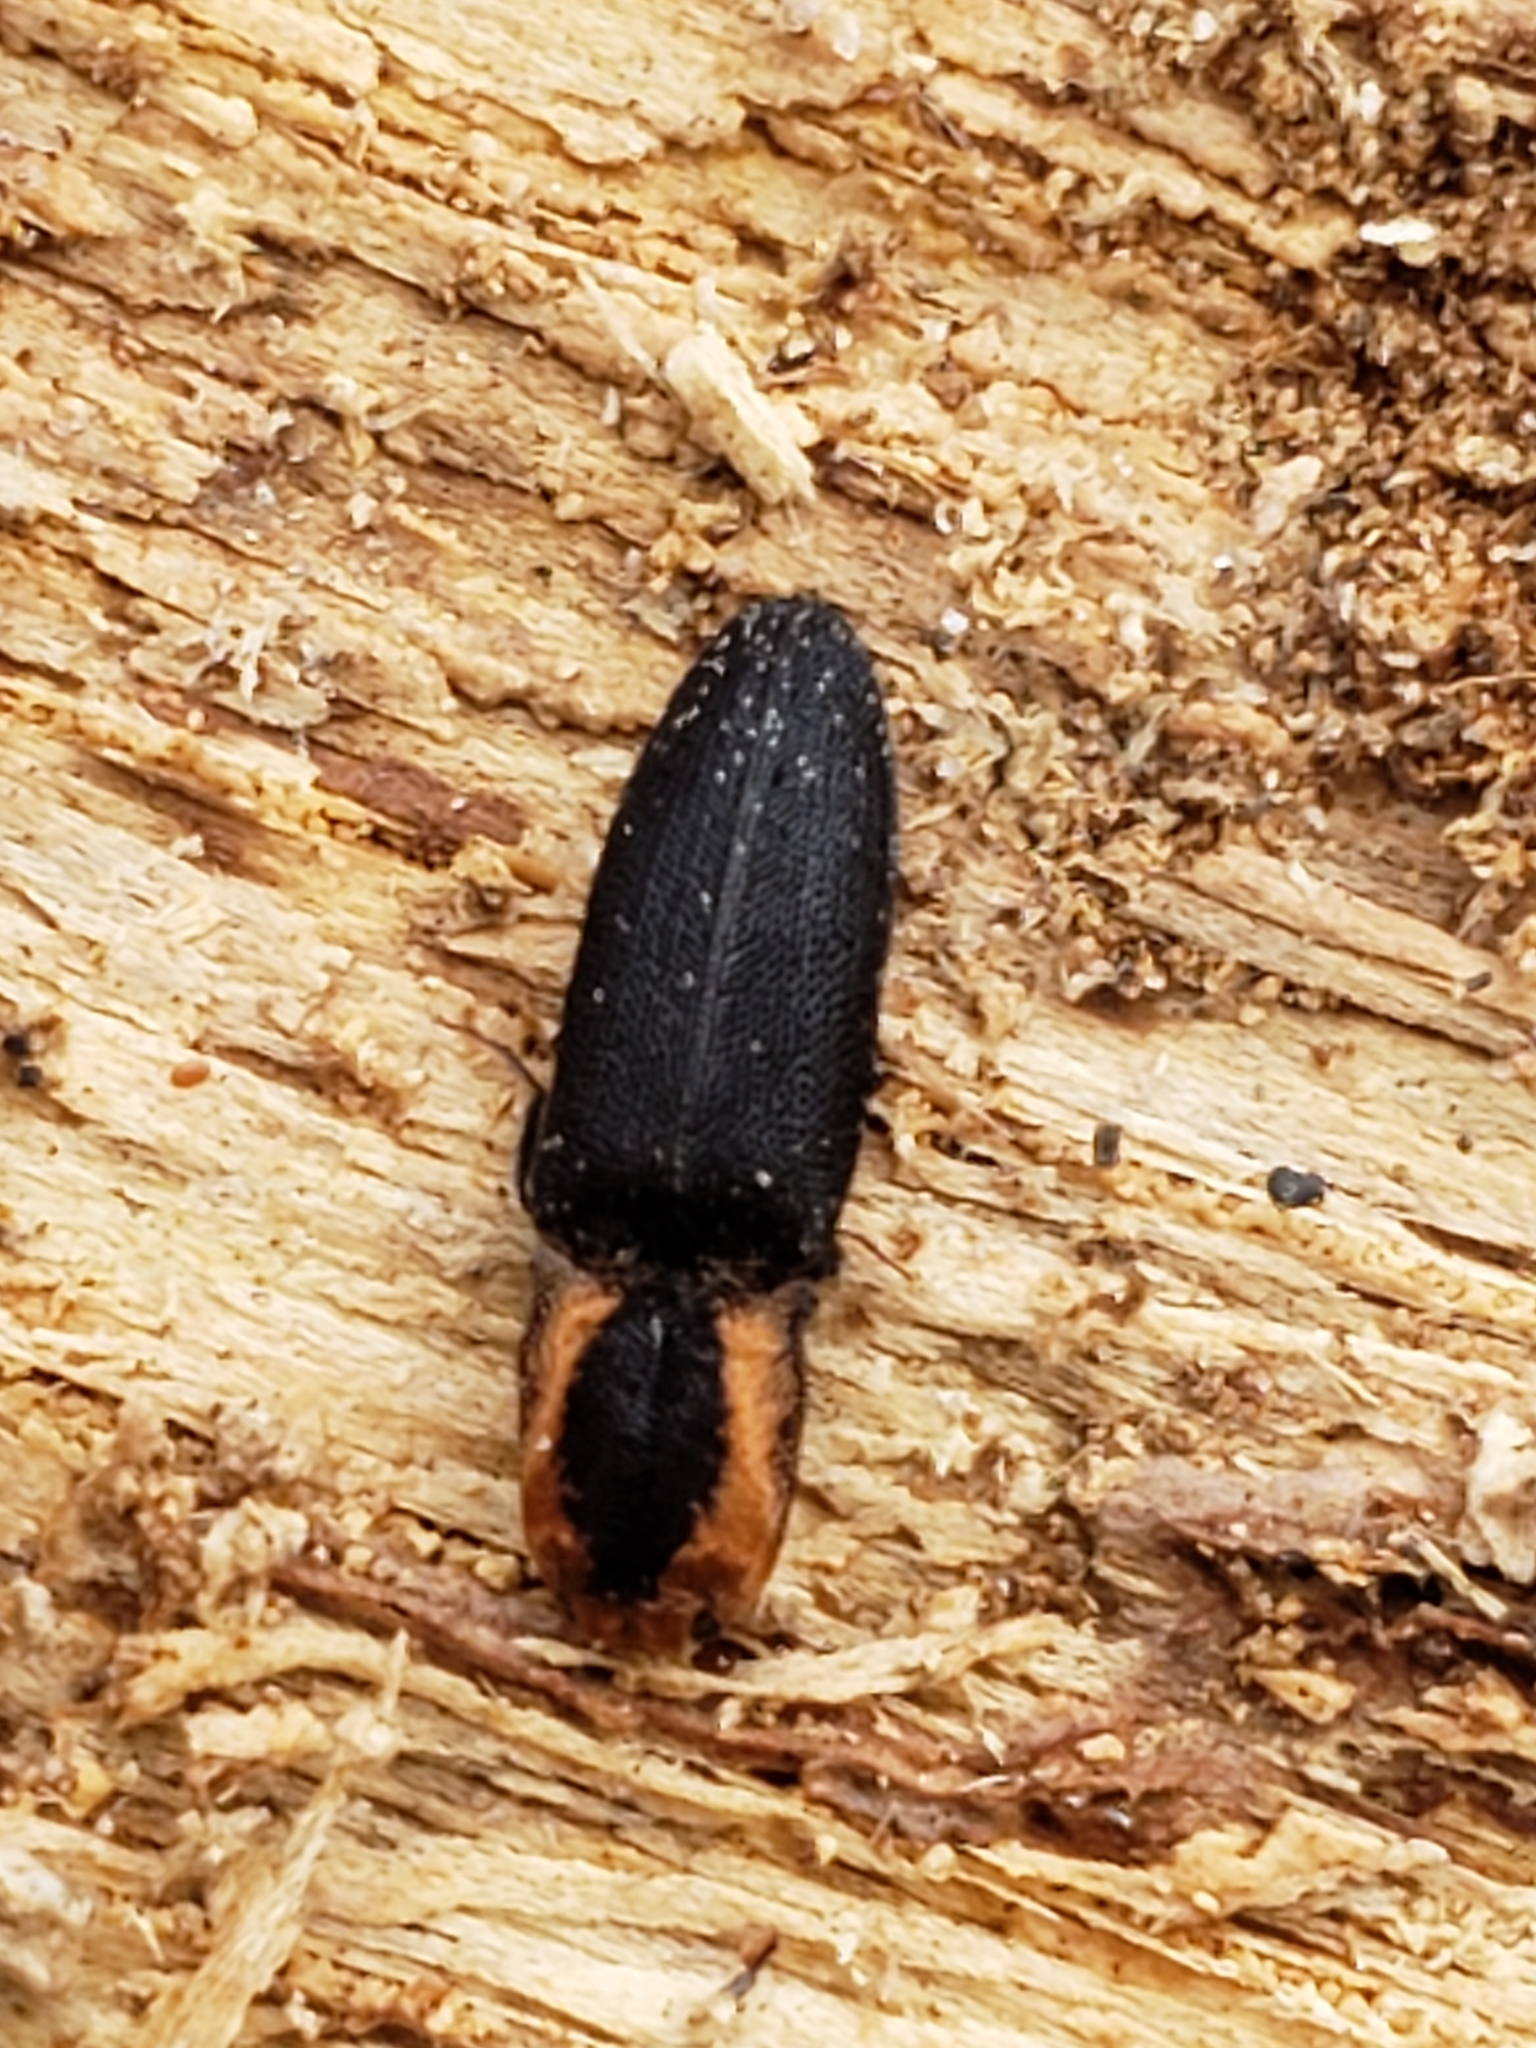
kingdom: Animalia
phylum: Arthropoda
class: Insecta
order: Coleoptera
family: Elateridae
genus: Lacon
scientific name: Lacon discoideus
